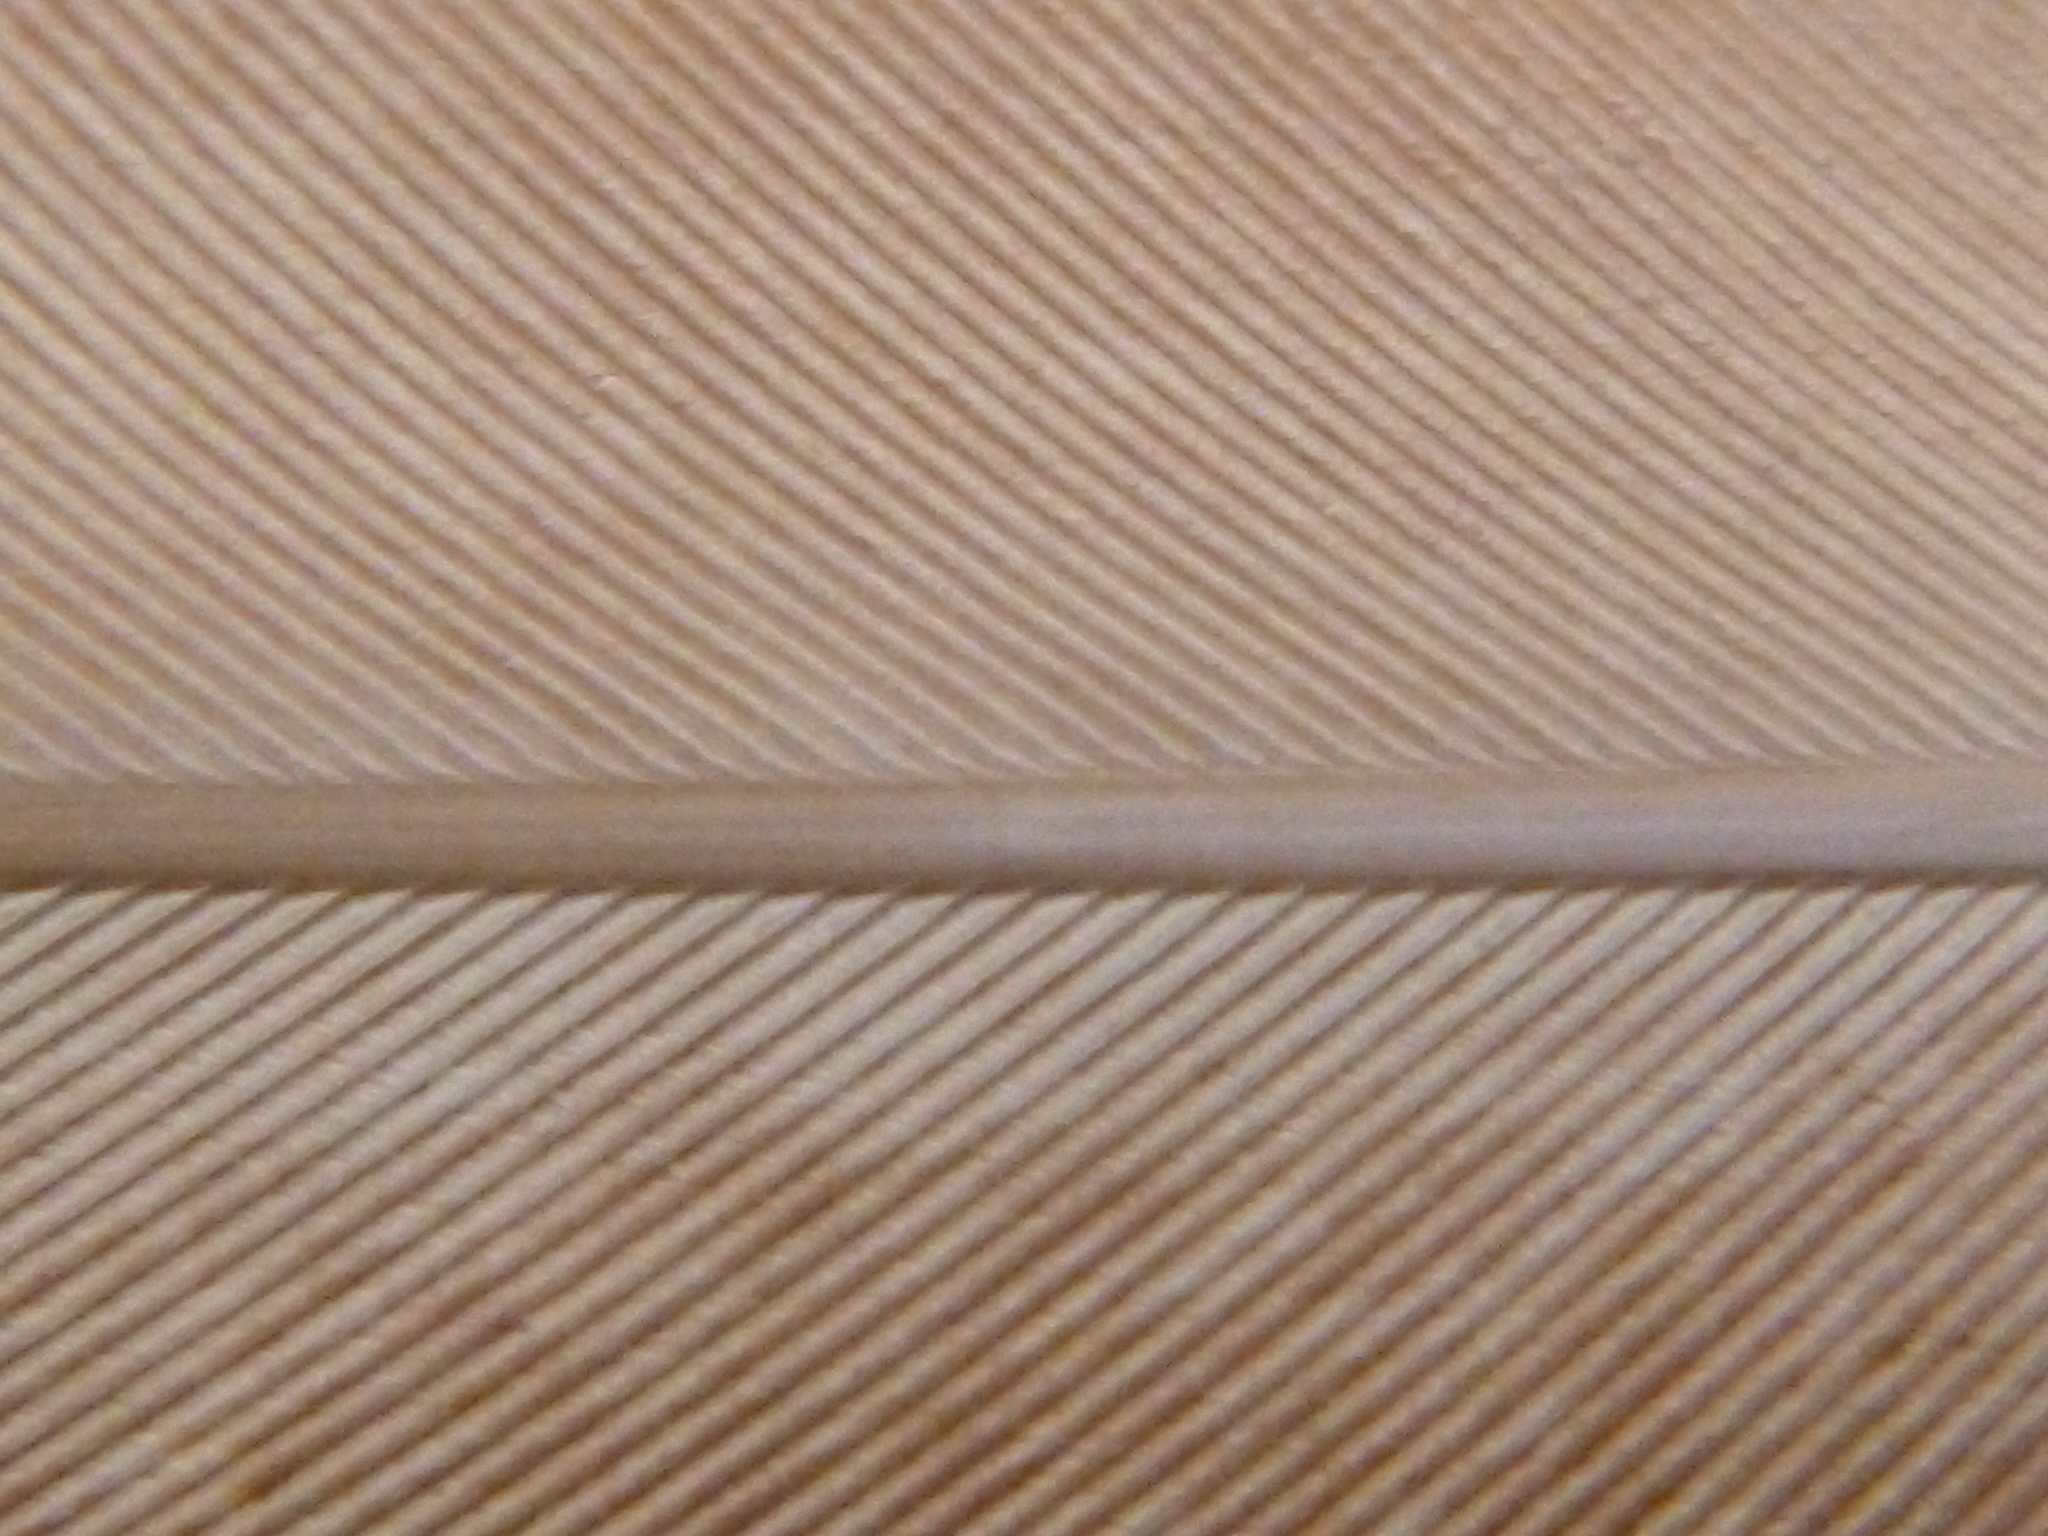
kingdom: Animalia
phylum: Chordata
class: Aves
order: Columbiformes
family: Columbidae
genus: Columba
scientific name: Columba livia
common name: Rock pigeon
